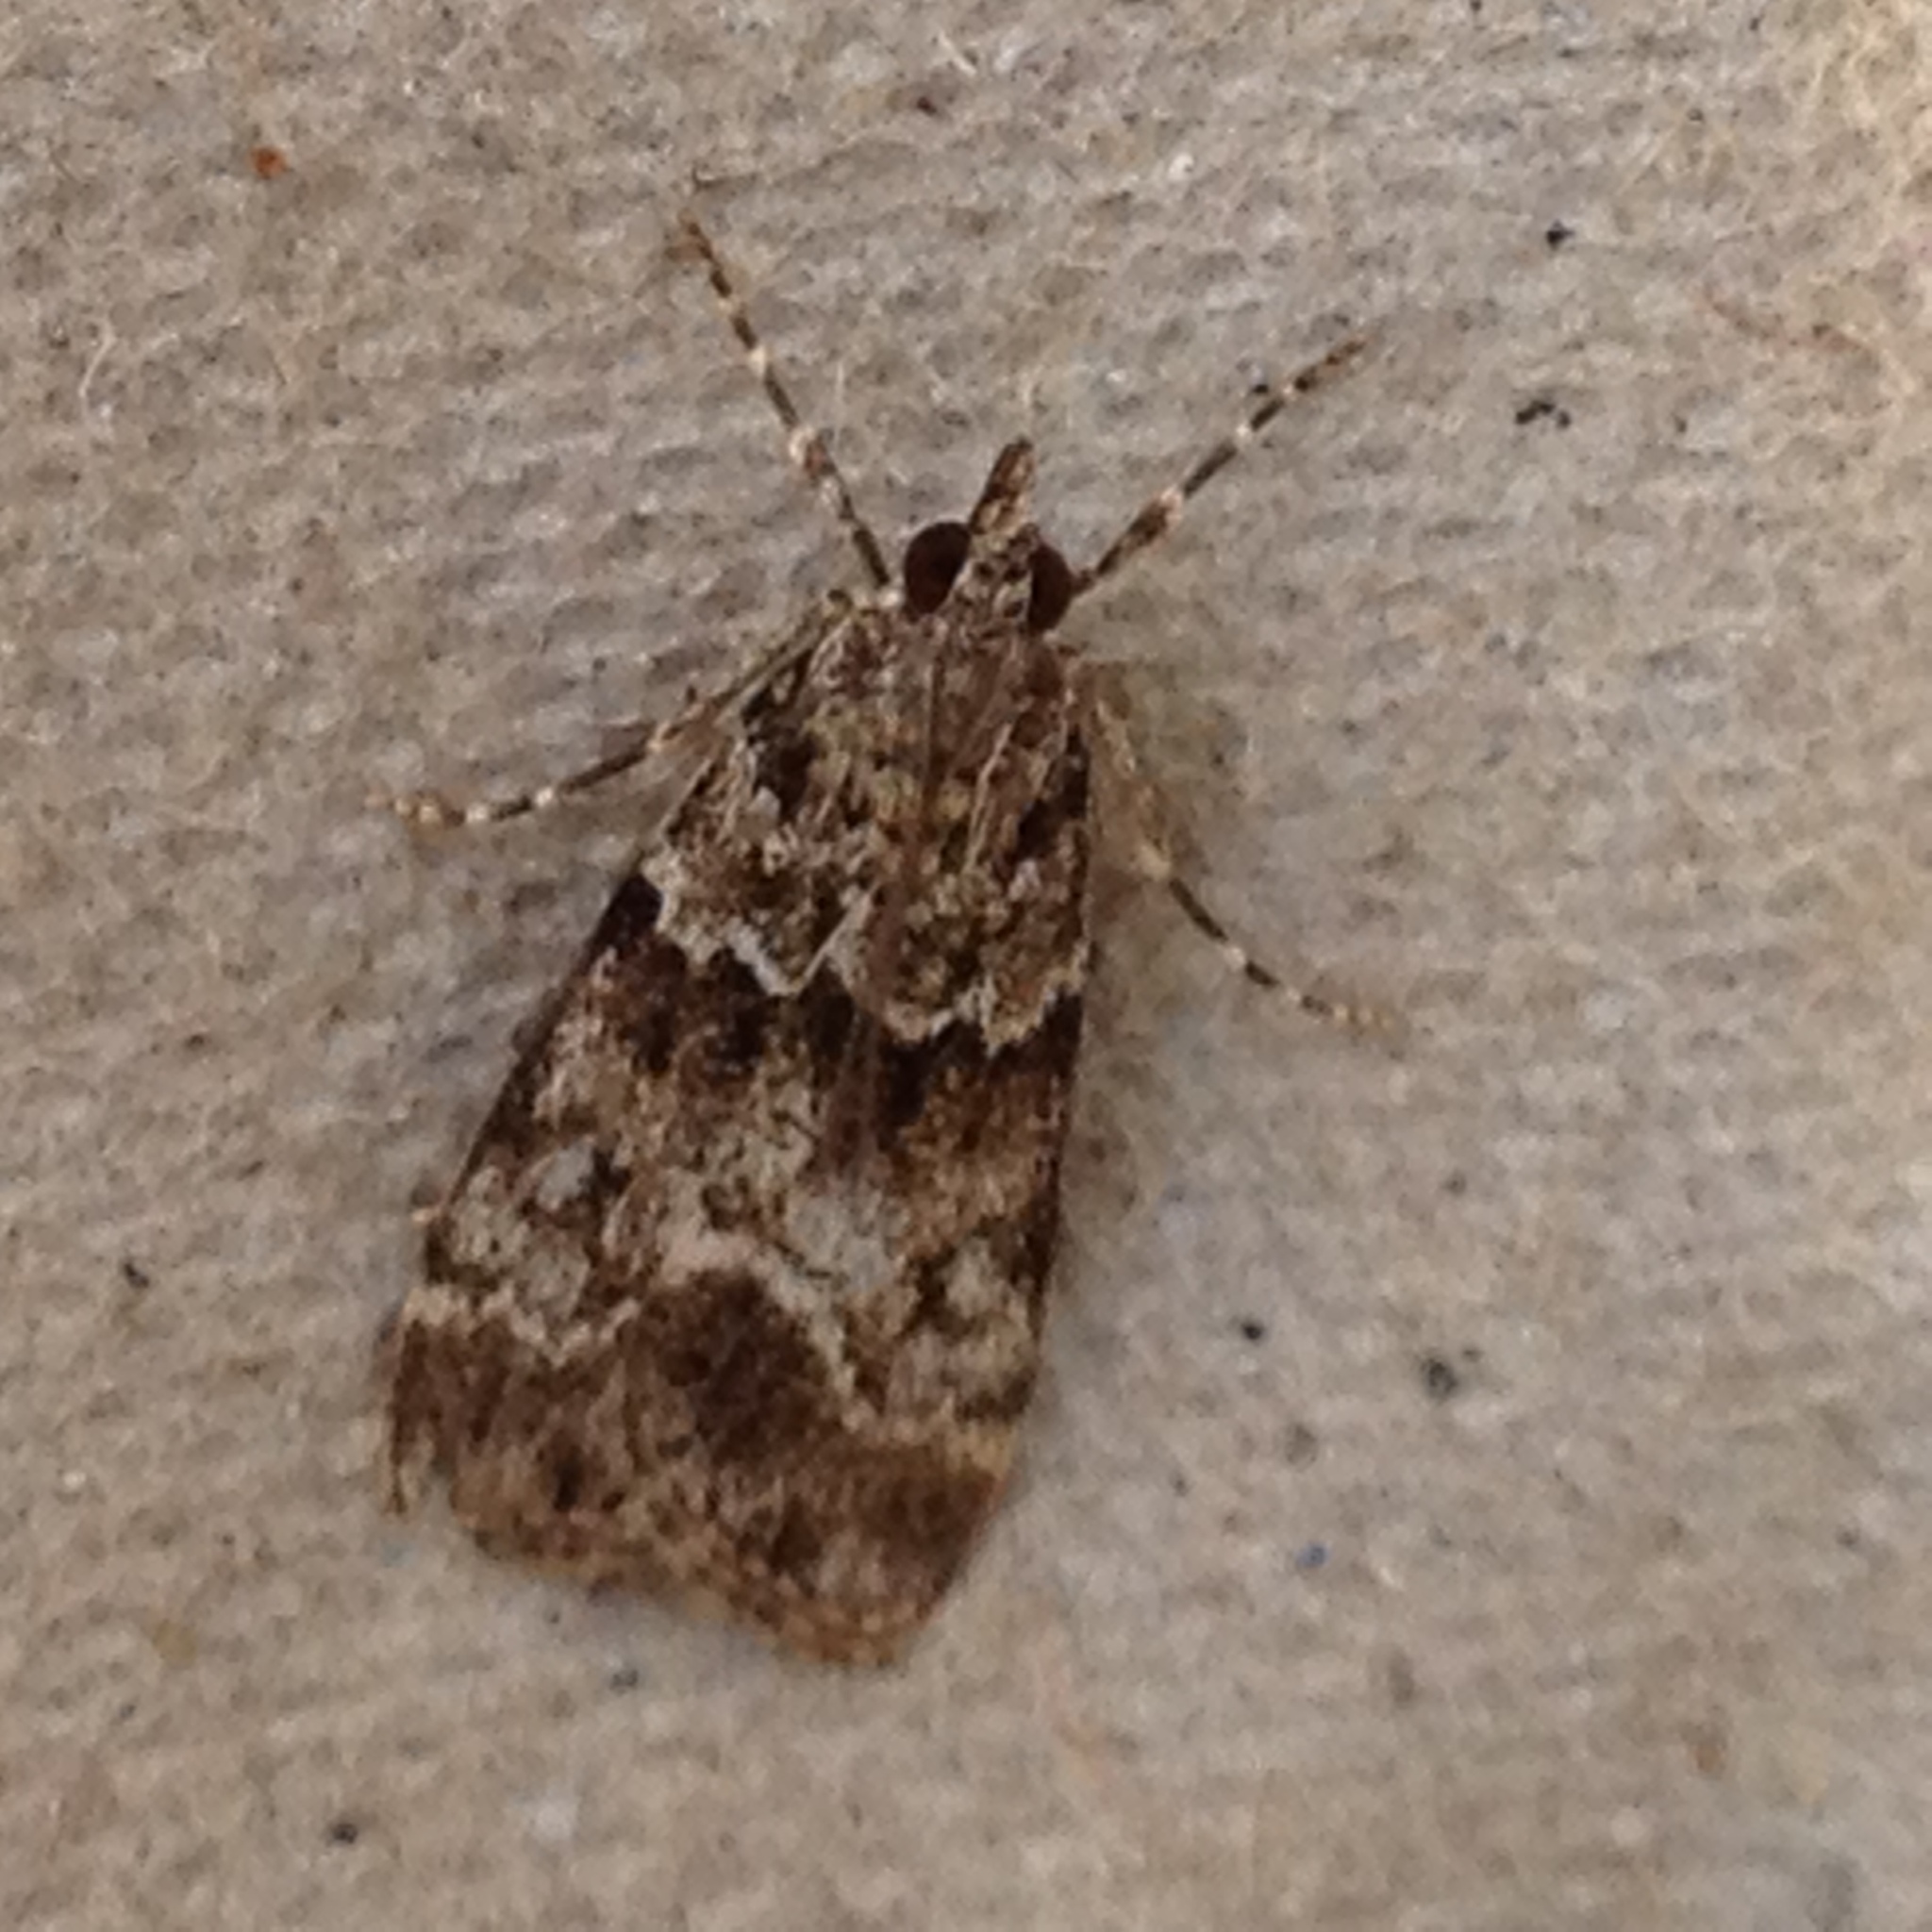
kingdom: Animalia
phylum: Arthropoda
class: Insecta
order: Lepidoptera
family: Crambidae
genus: Eudonia
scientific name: Eudonia mercurella
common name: Small grey
